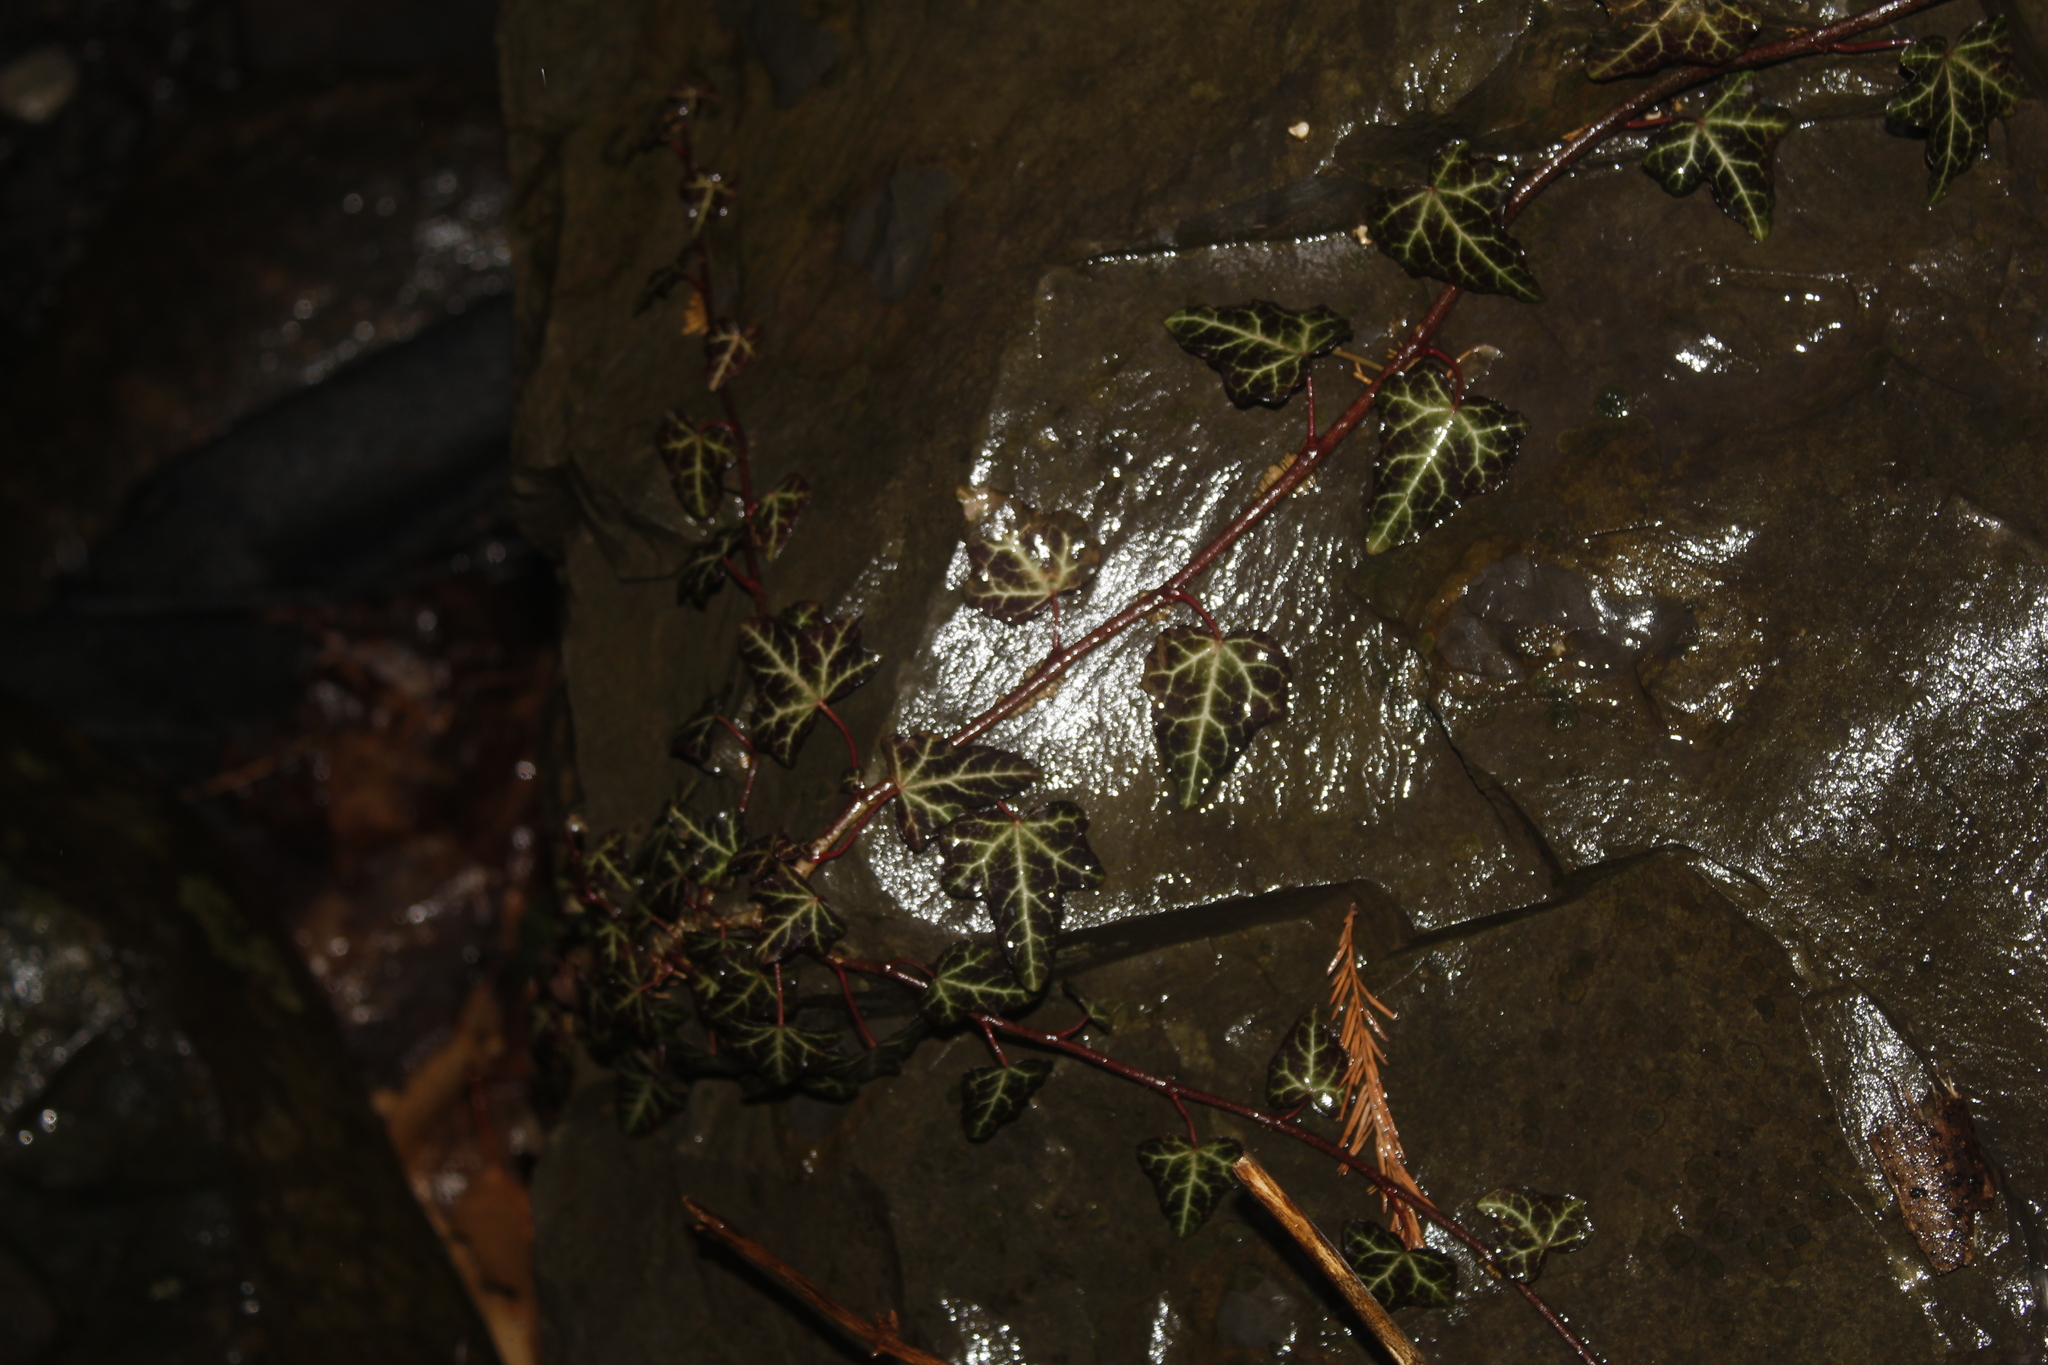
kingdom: Plantae
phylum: Tracheophyta
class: Magnoliopsida
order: Apiales
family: Araliaceae
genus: Hedera
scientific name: Hedera helix
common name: Ivy
